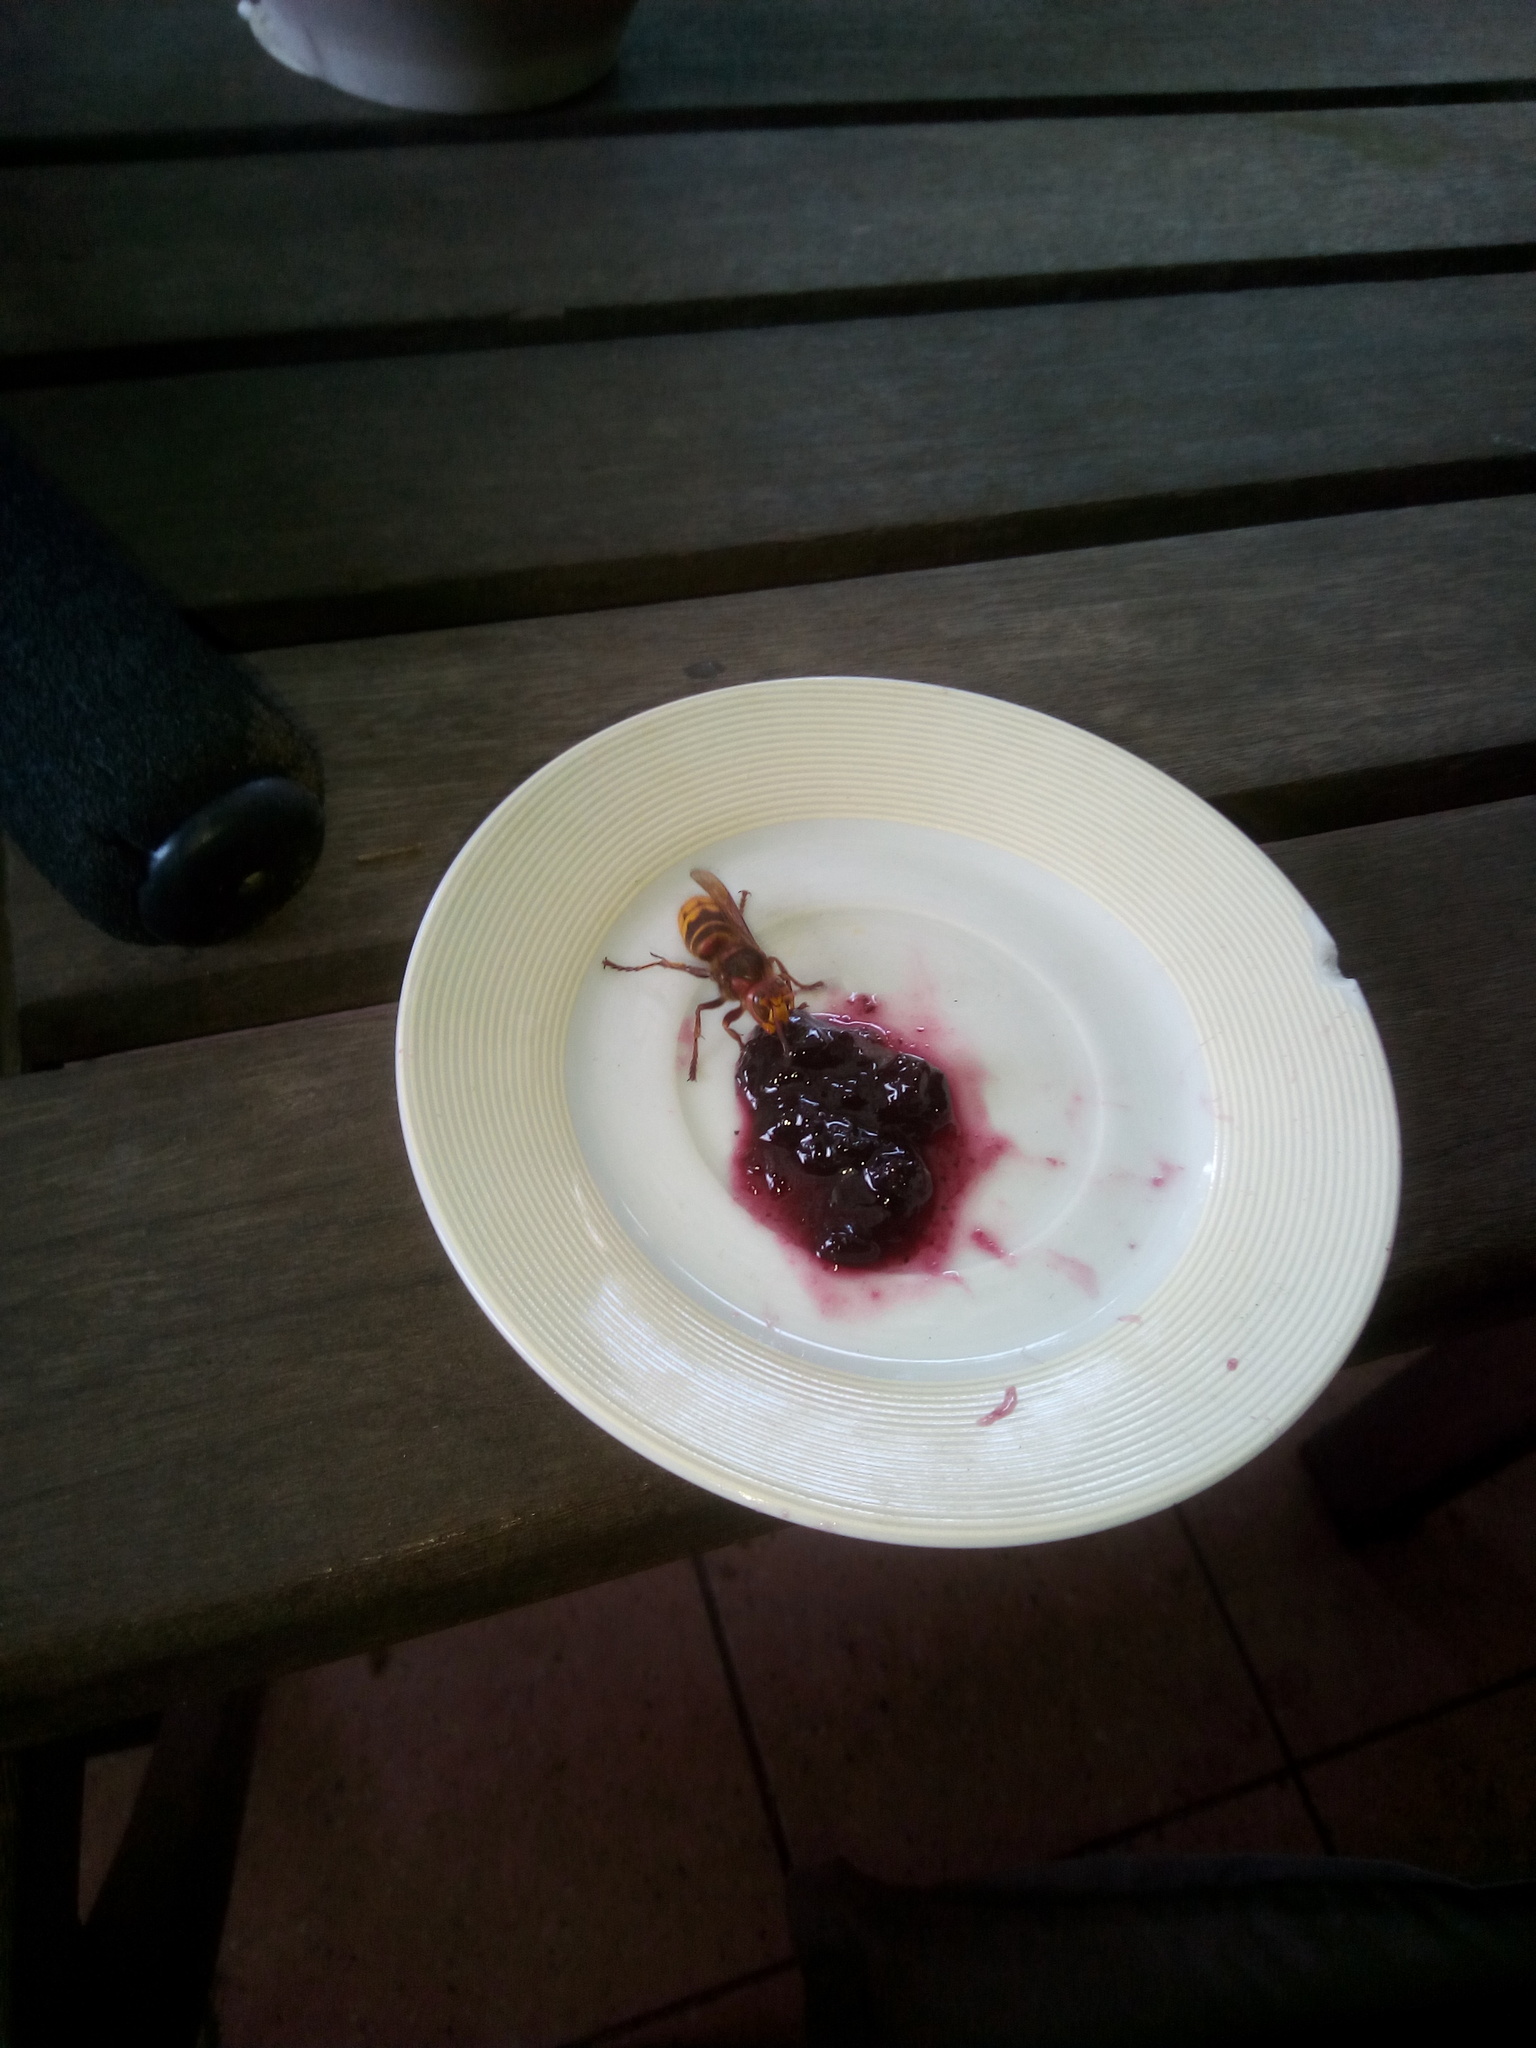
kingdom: Animalia
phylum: Arthropoda
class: Insecta
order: Hymenoptera
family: Vespidae
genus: Vespa
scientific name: Vespa crabro
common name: Hornet
